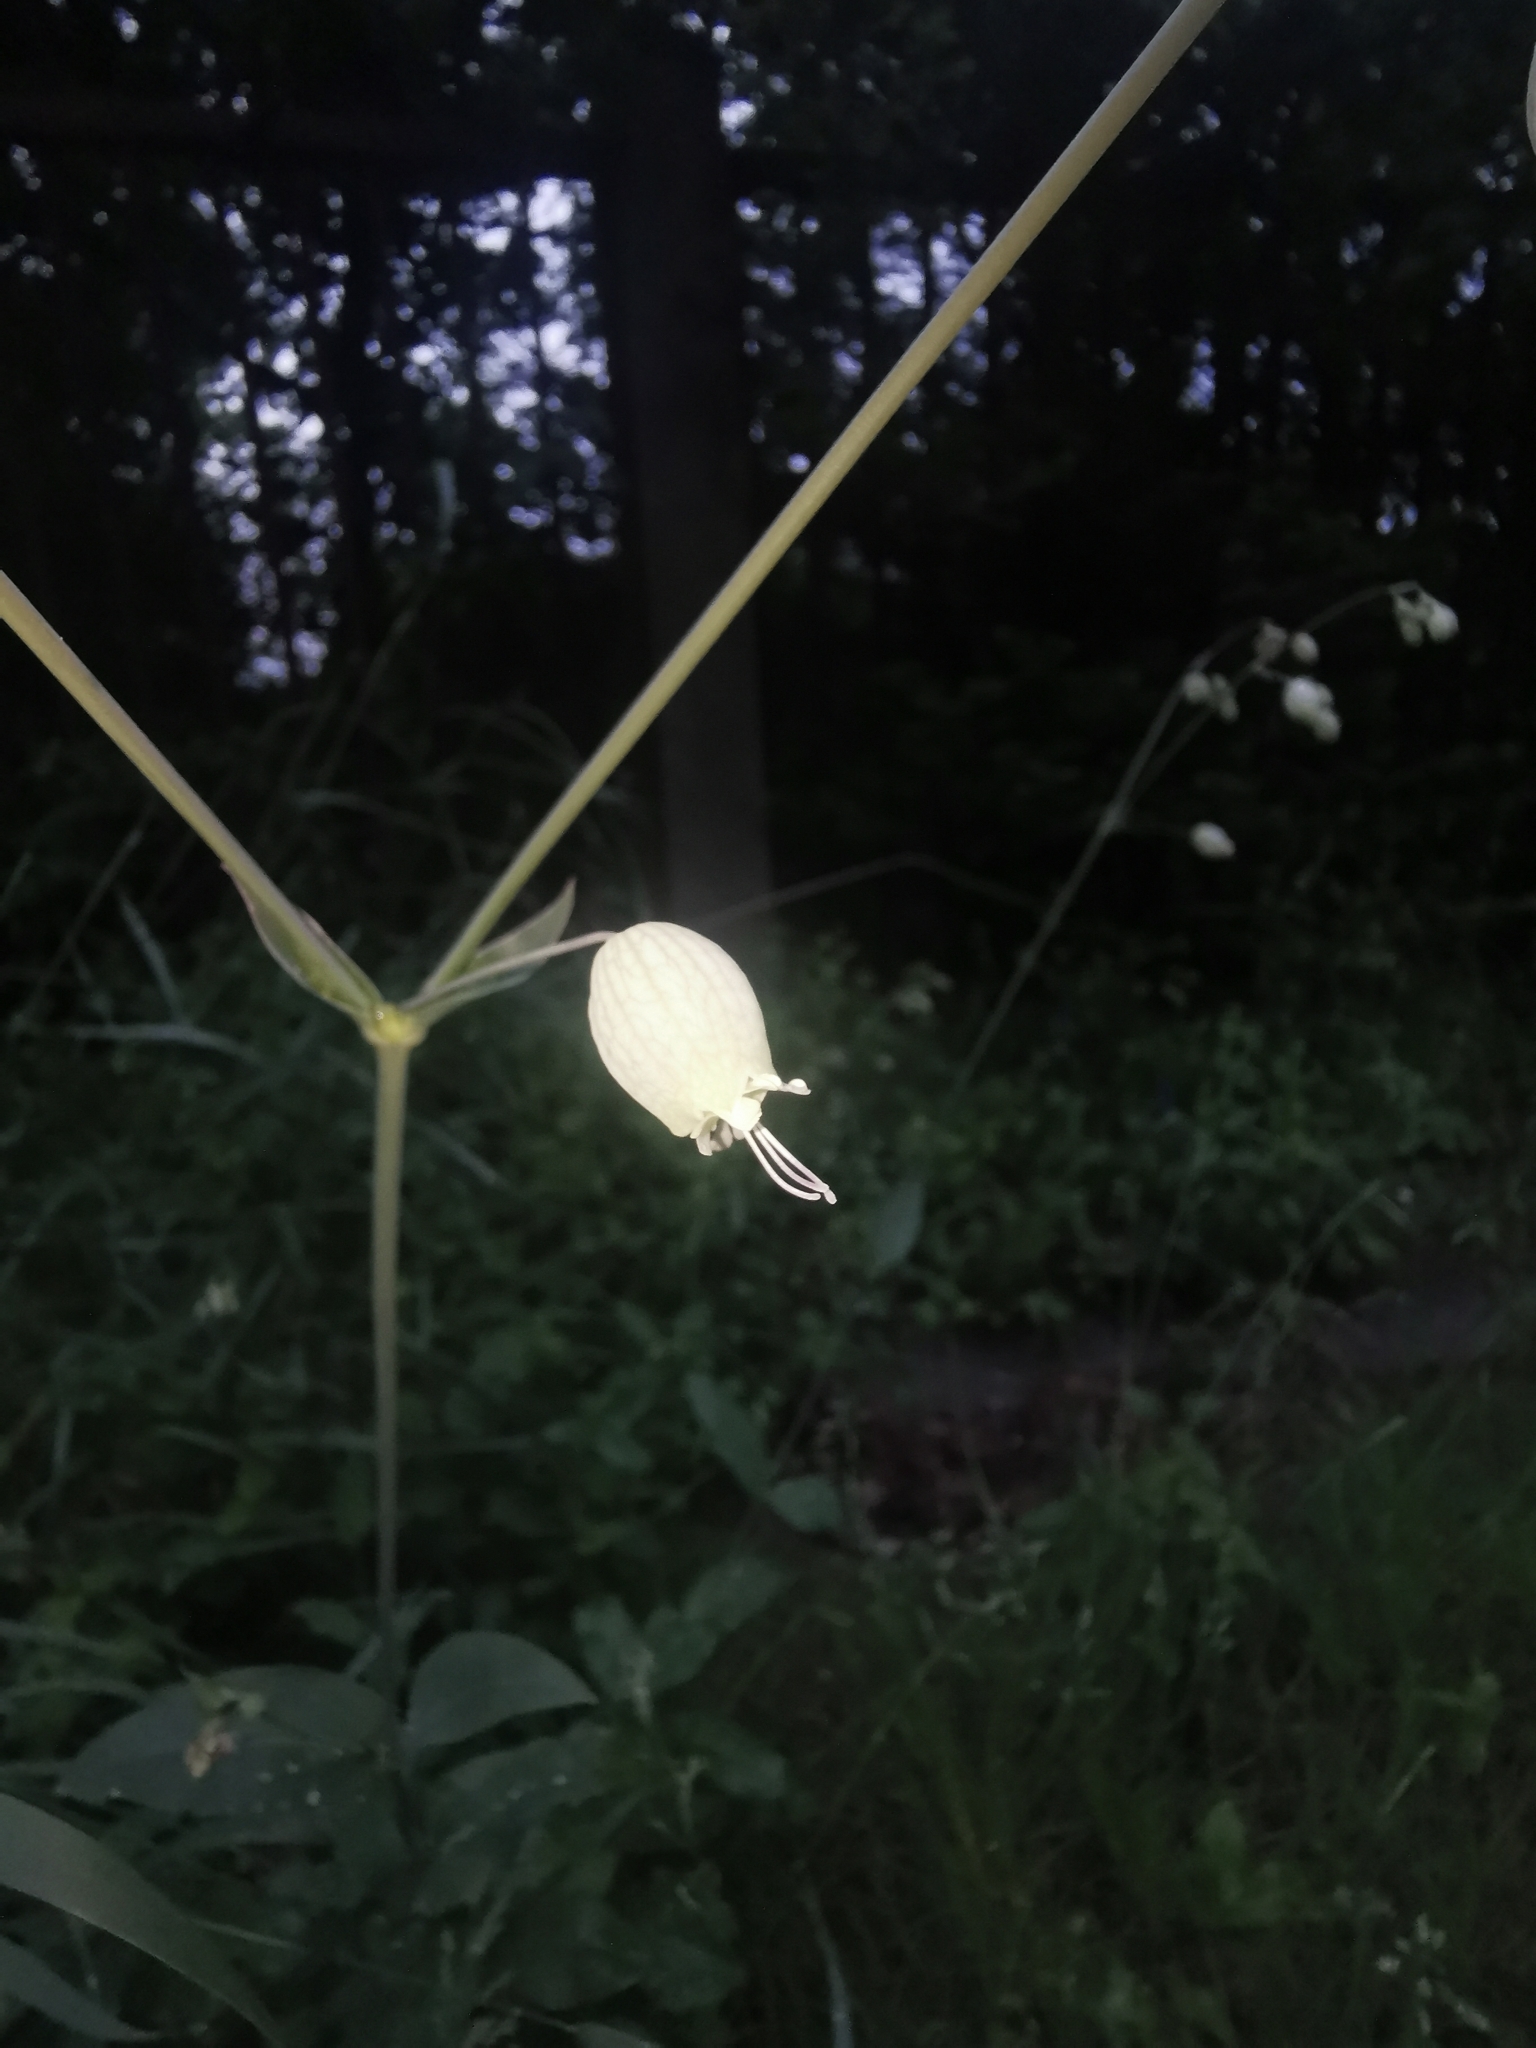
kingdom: Plantae
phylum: Tracheophyta
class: Magnoliopsida
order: Caryophyllales
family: Caryophyllaceae
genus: Silene
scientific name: Silene vulgaris
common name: Bladder campion
